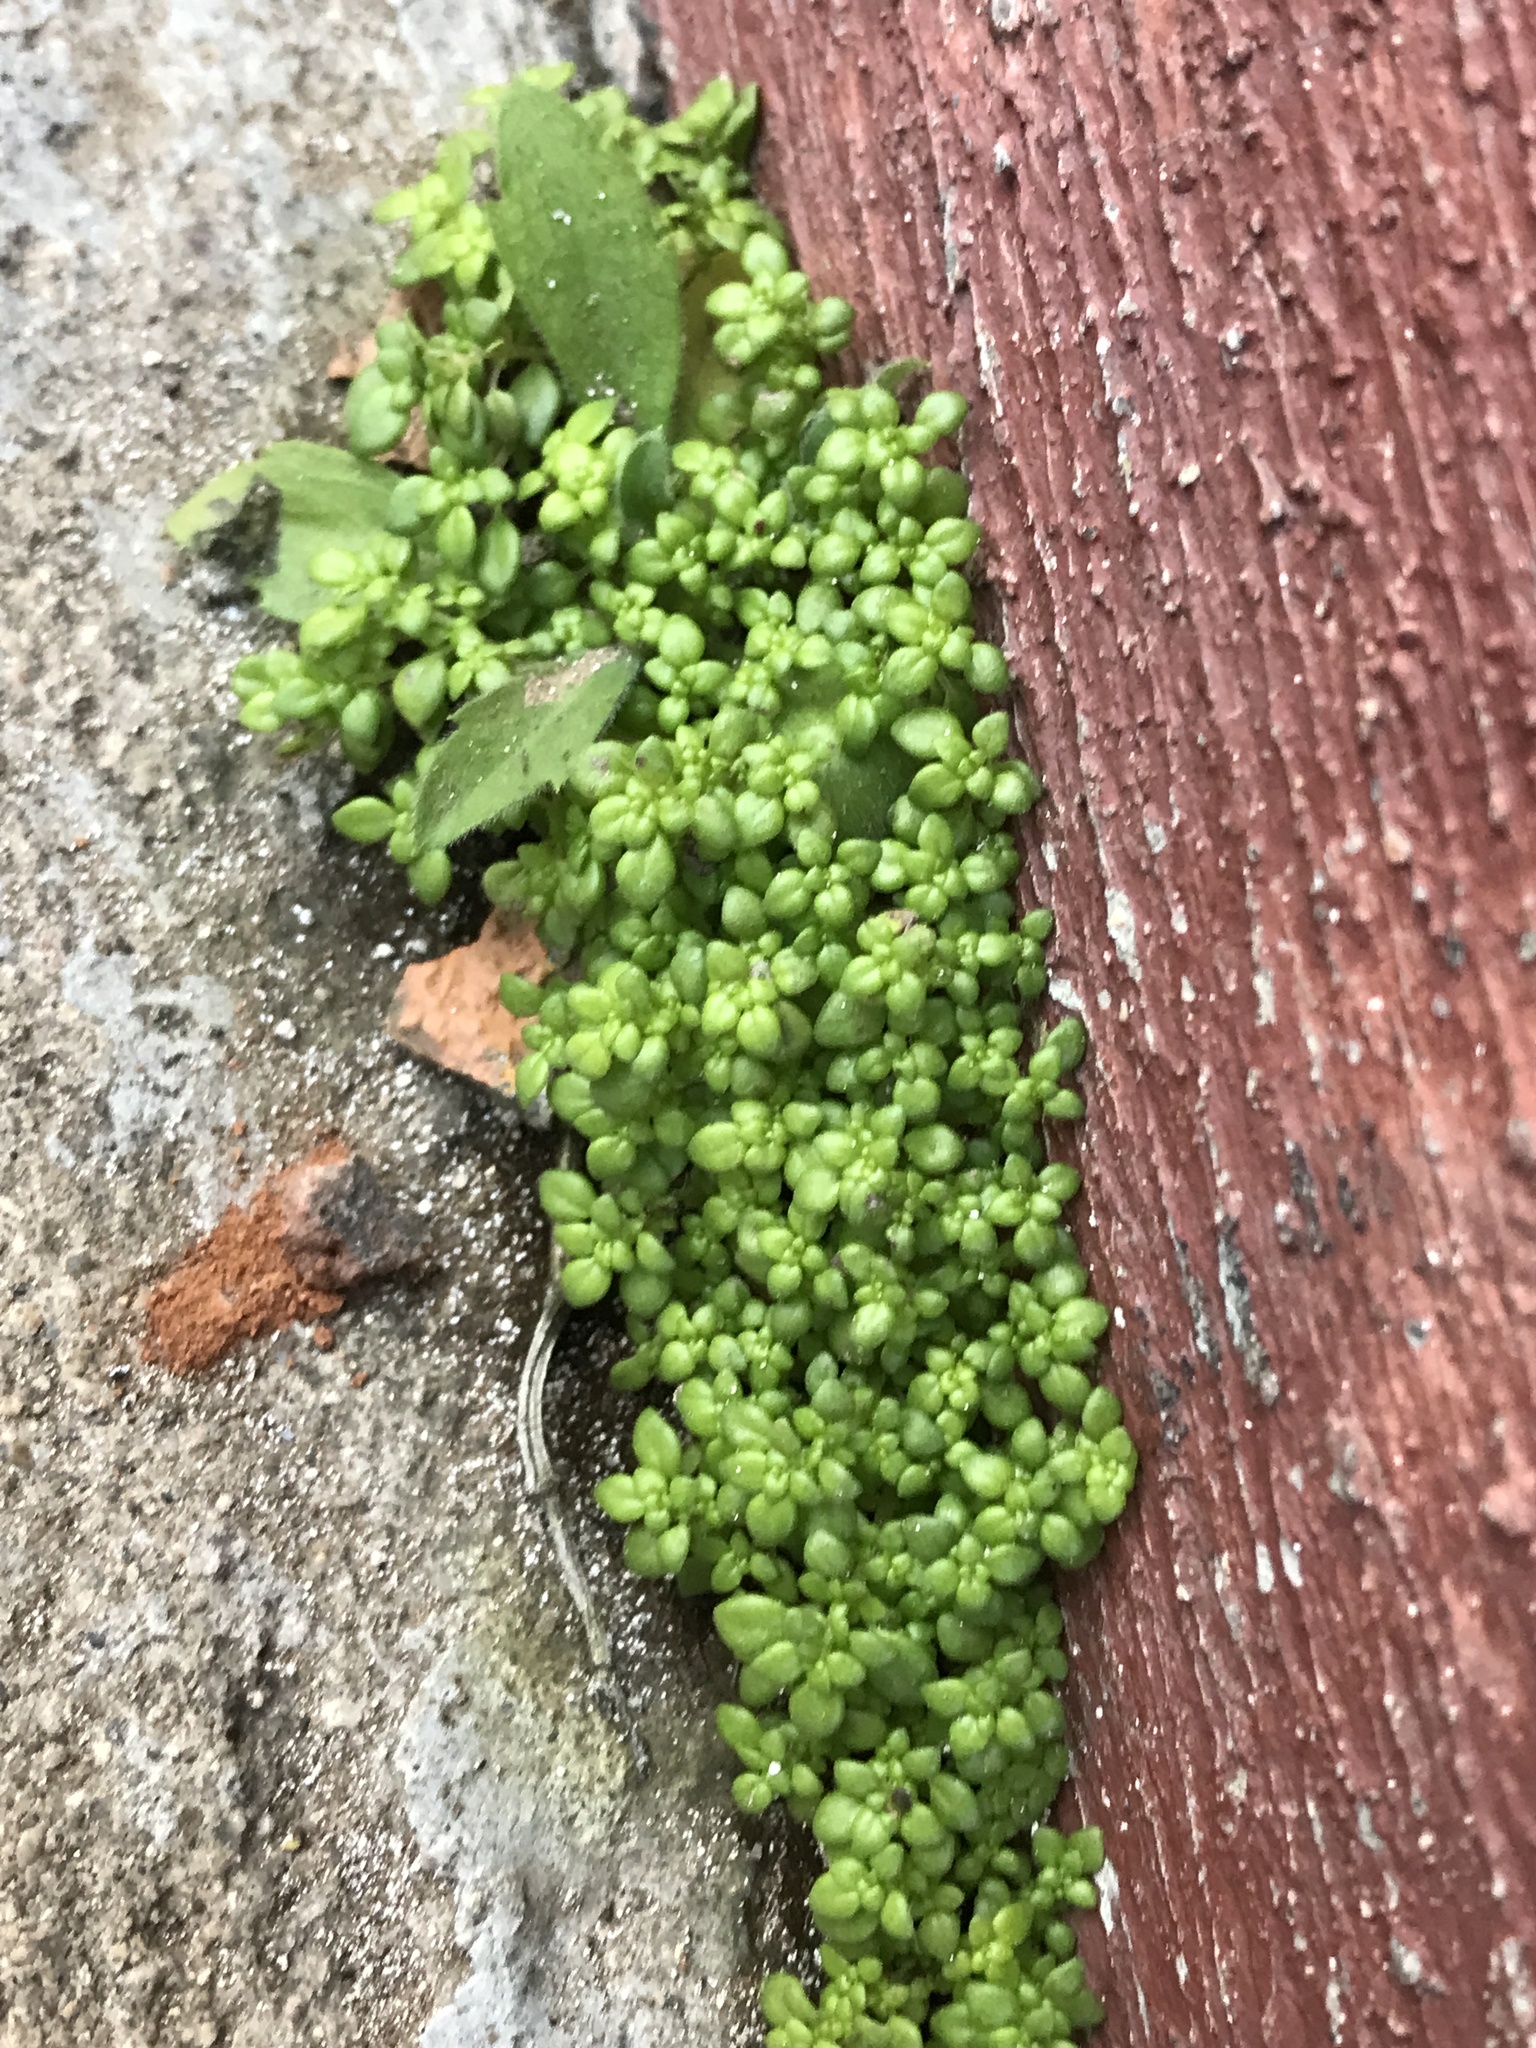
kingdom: Plantae
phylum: Tracheophyta
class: Magnoliopsida
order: Rosales
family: Urticaceae
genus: Pilea
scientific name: Pilea microphylla
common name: Artillery-plant
